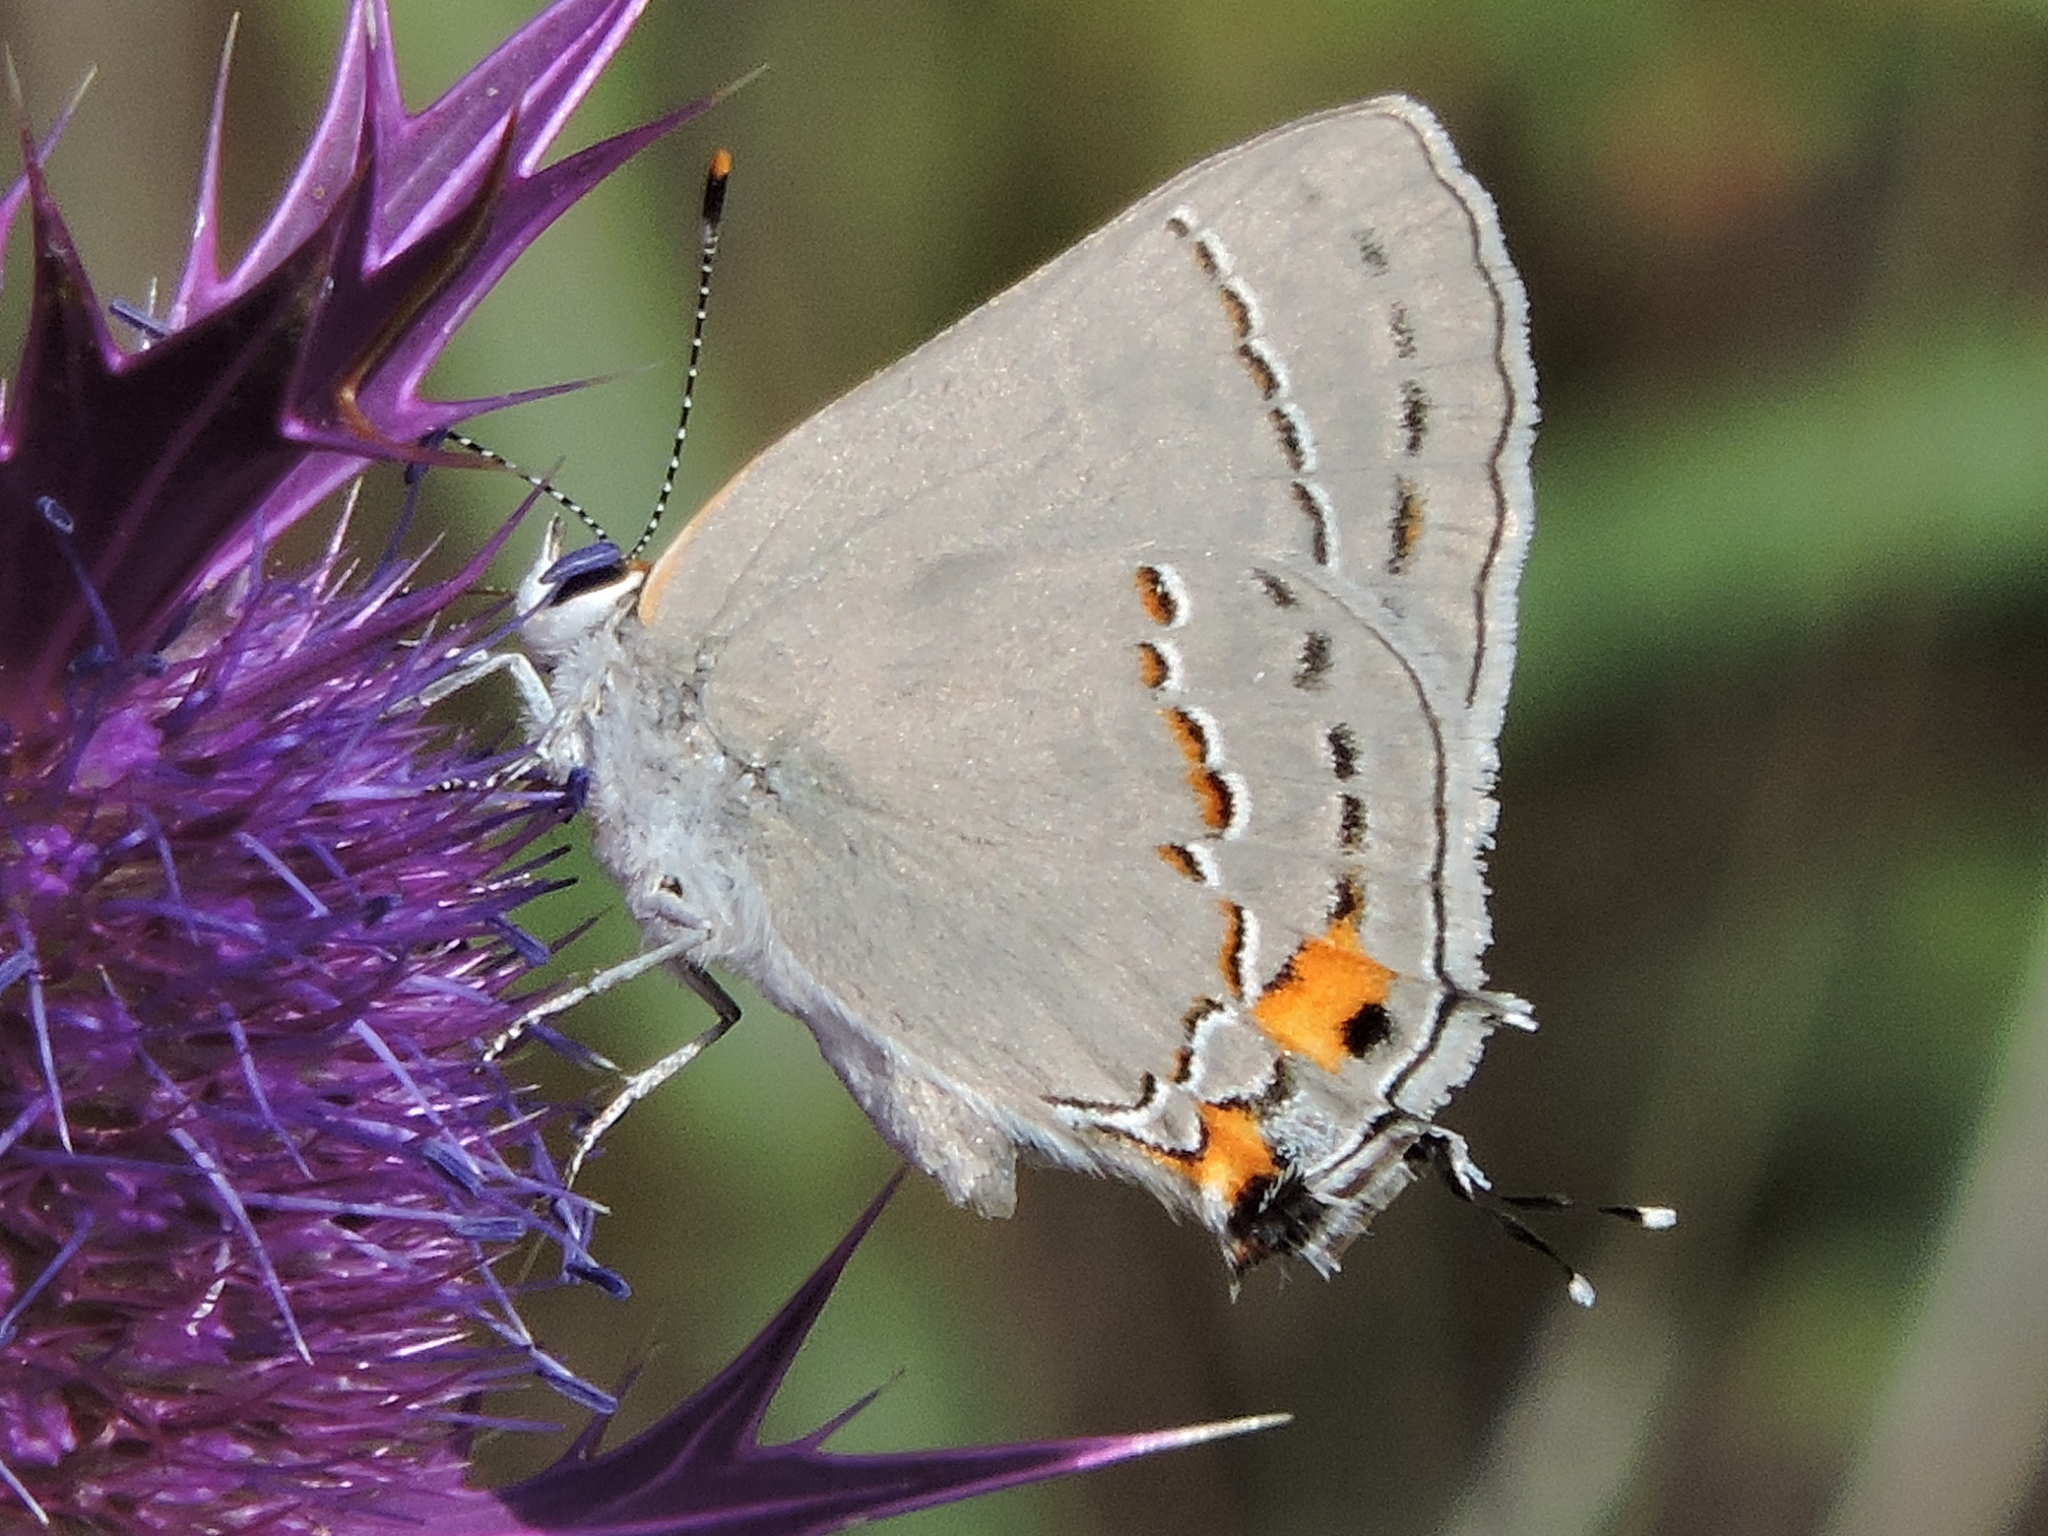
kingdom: Animalia
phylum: Arthropoda
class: Insecta
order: Lepidoptera
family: Lycaenidae
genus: Strymon
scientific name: Strymon melinus
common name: Gray hairstreak
